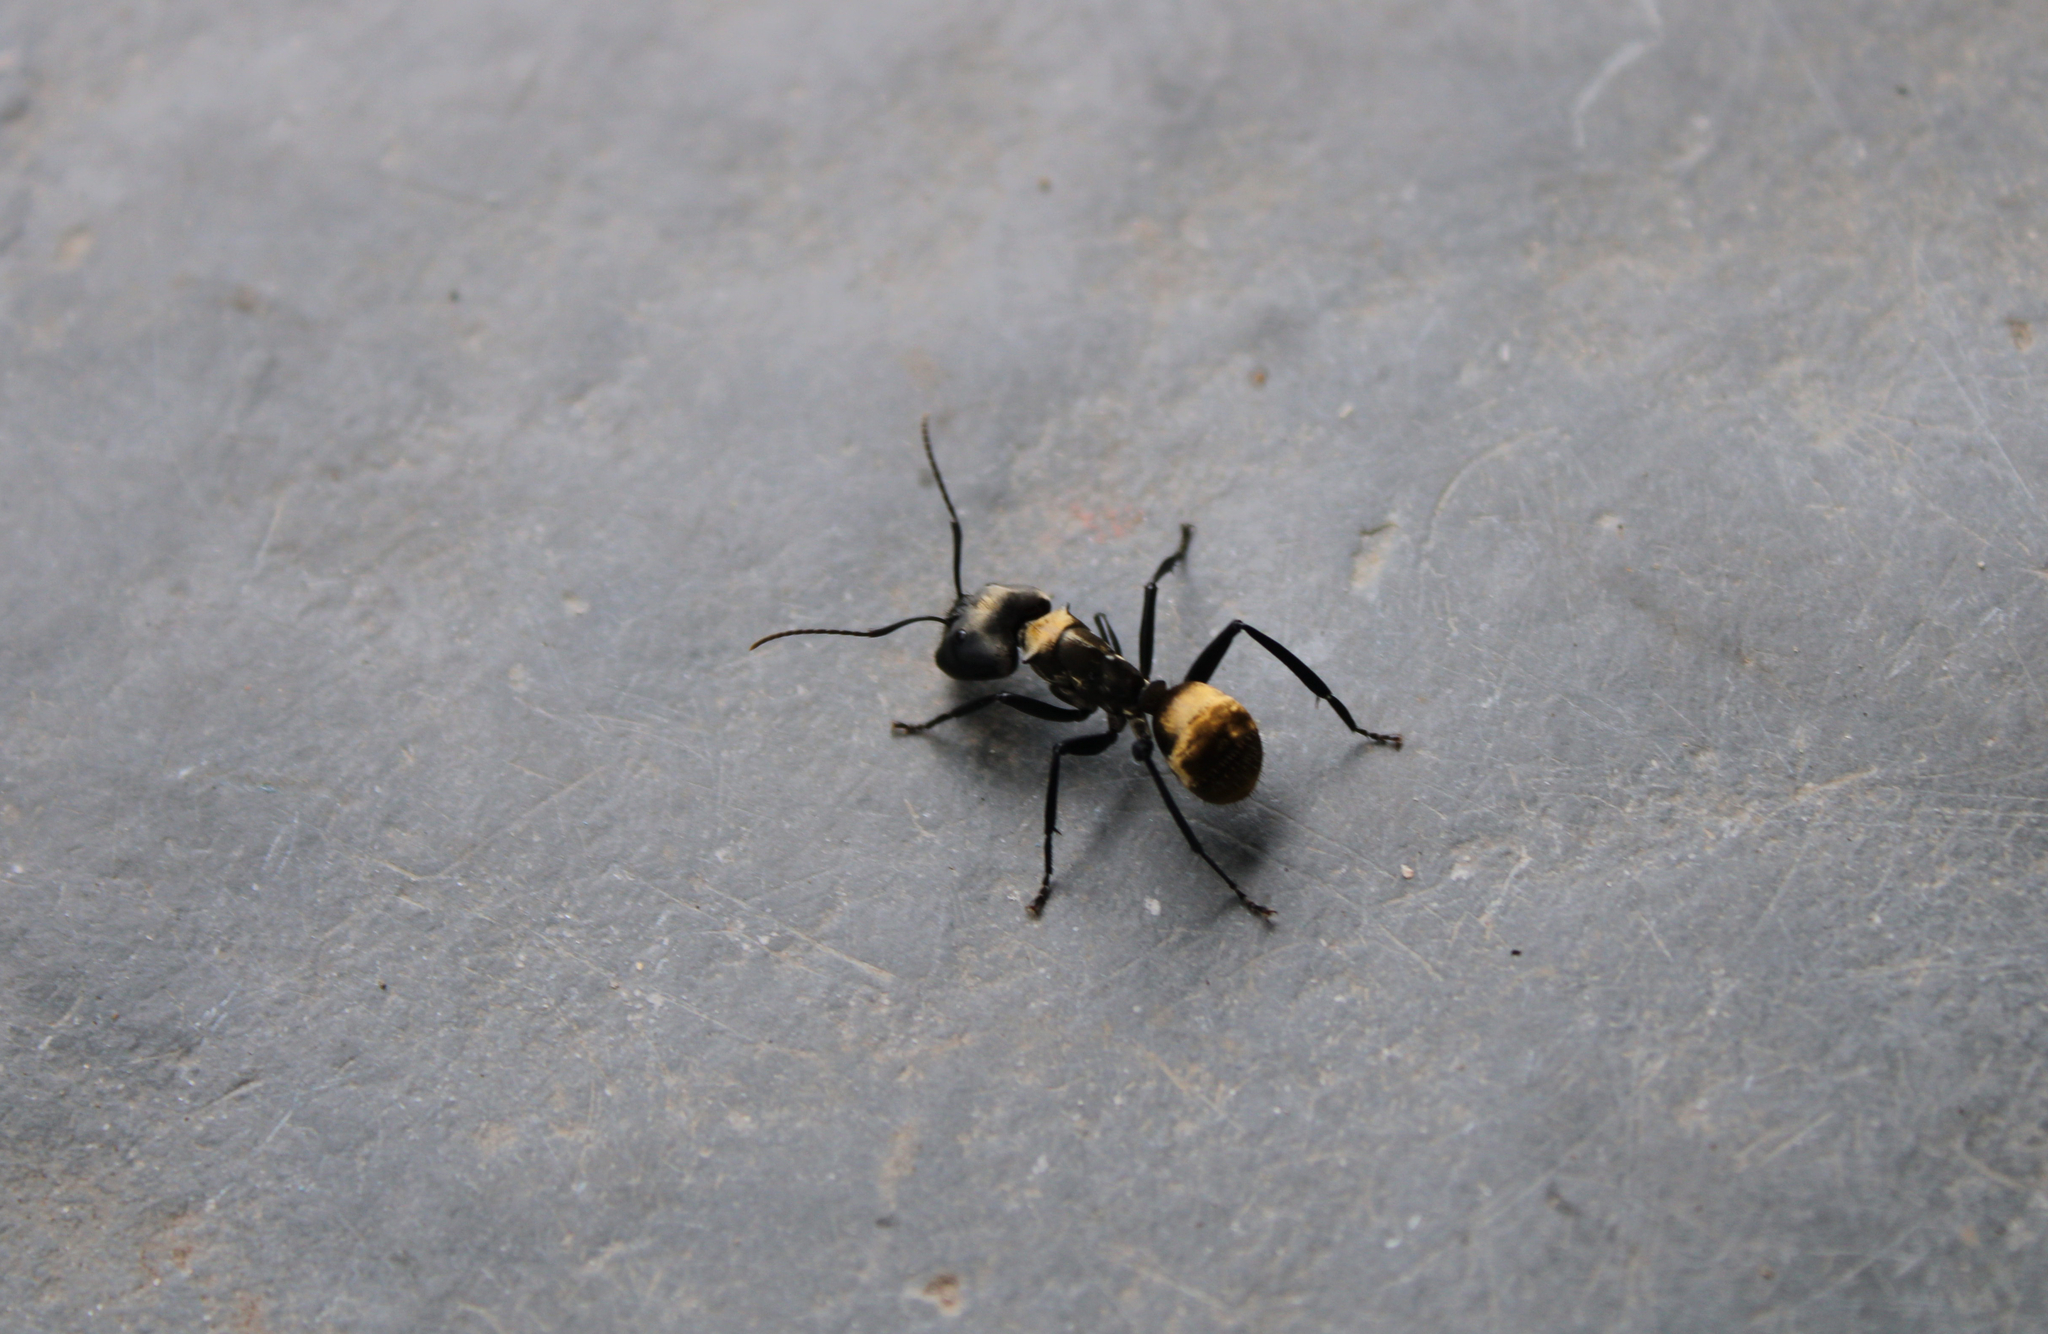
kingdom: Animalia
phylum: Arthropoda
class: Insecta
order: Hymenoptera
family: Formicidae
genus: Camponotus
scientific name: Camponotus sericeiventris
